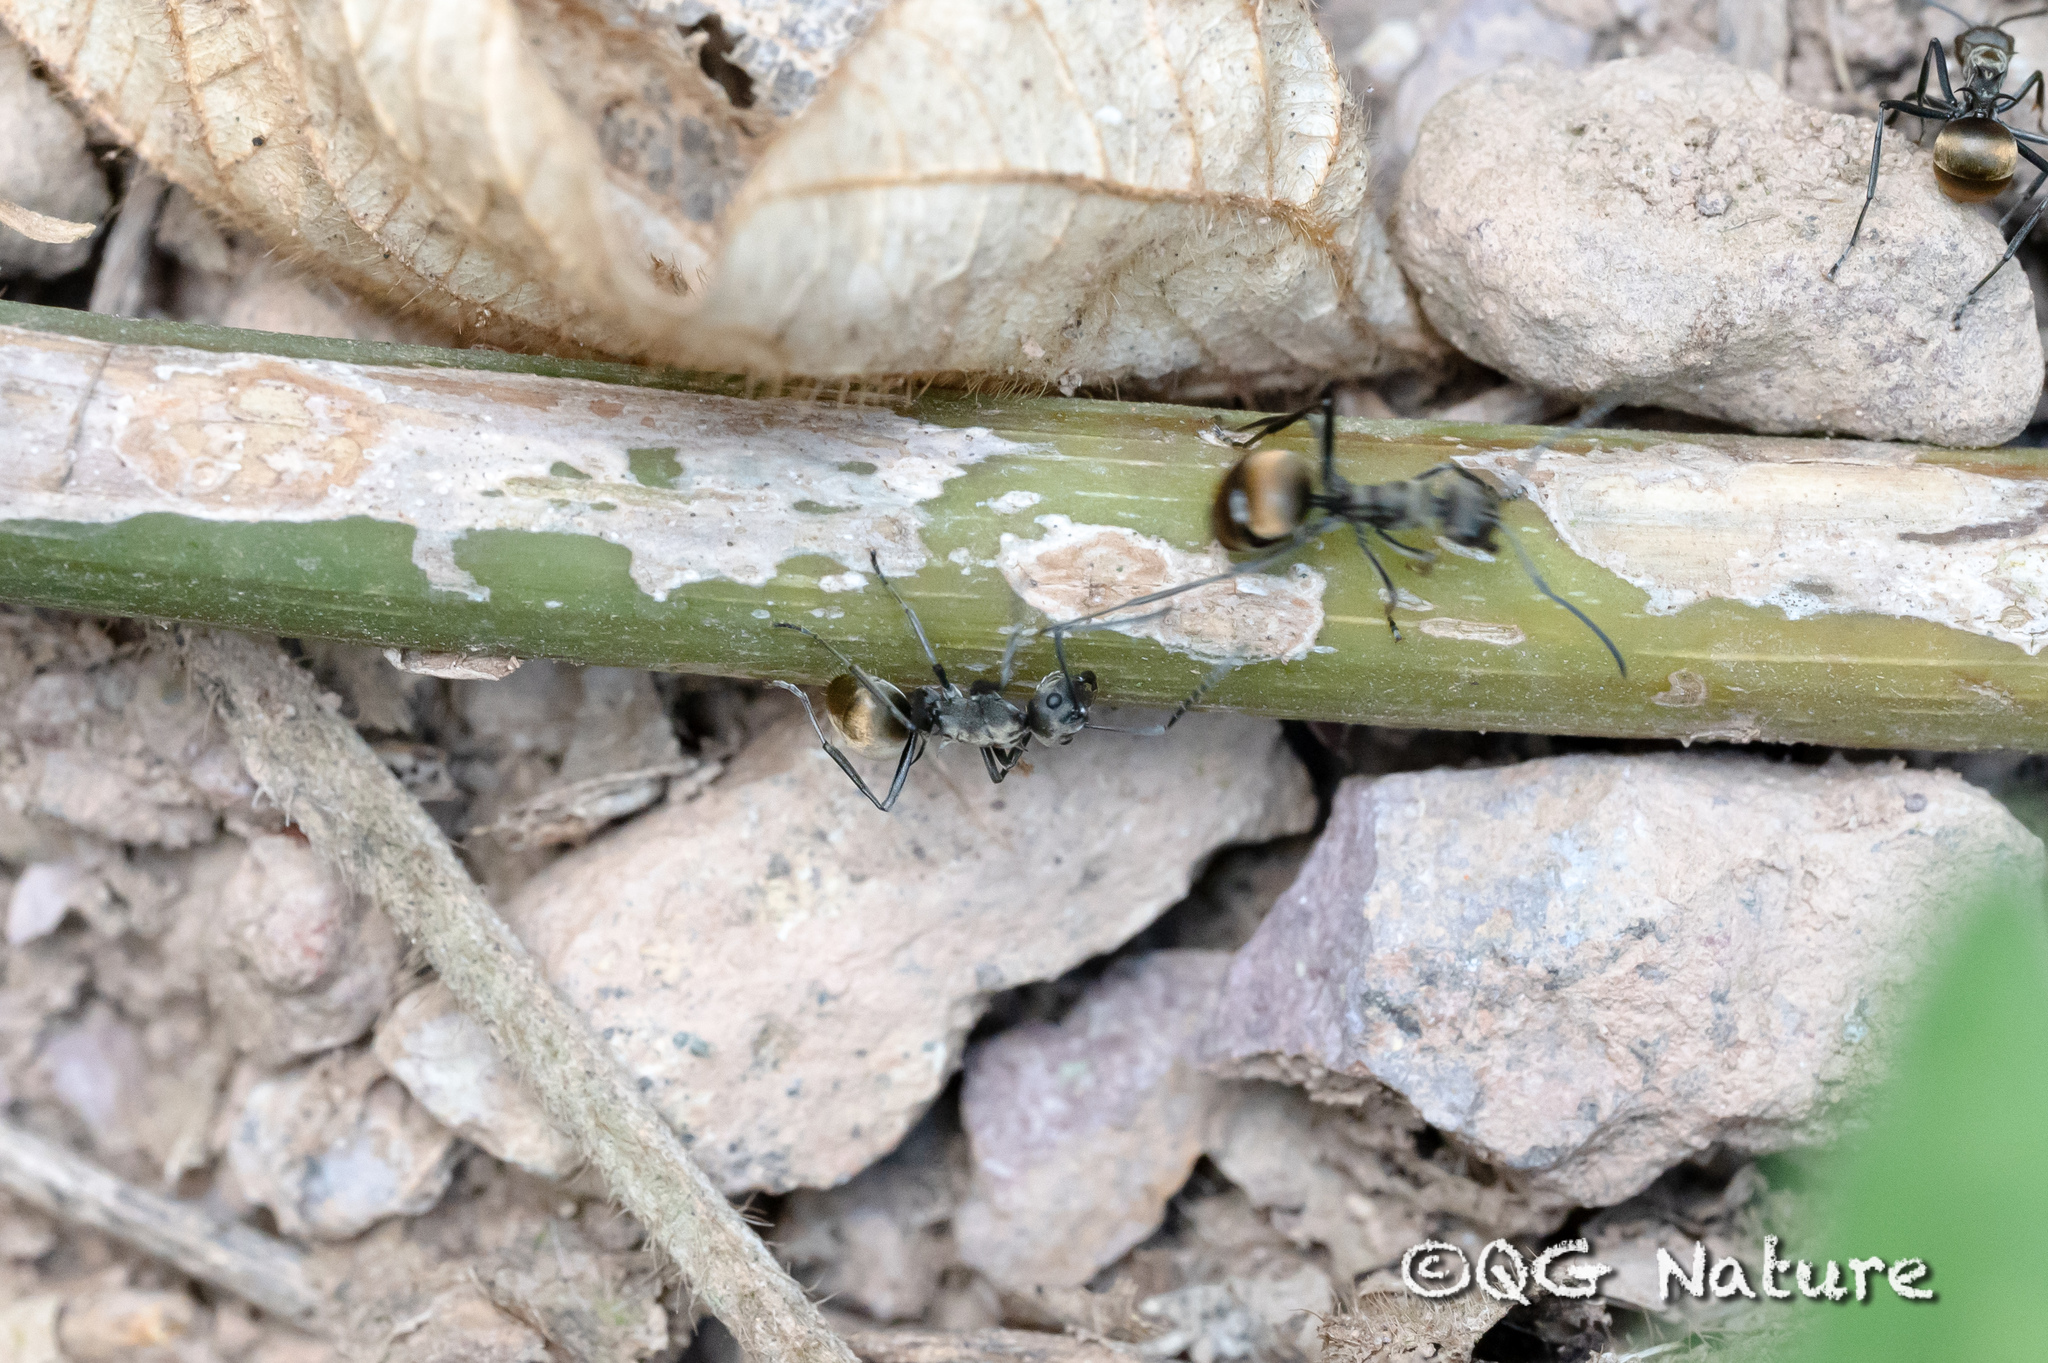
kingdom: Animalia
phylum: Arthropoda
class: Insecta
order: Hymenoptera
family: Formicidae
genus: Polyrhachis
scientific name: Polyrhachis dives
